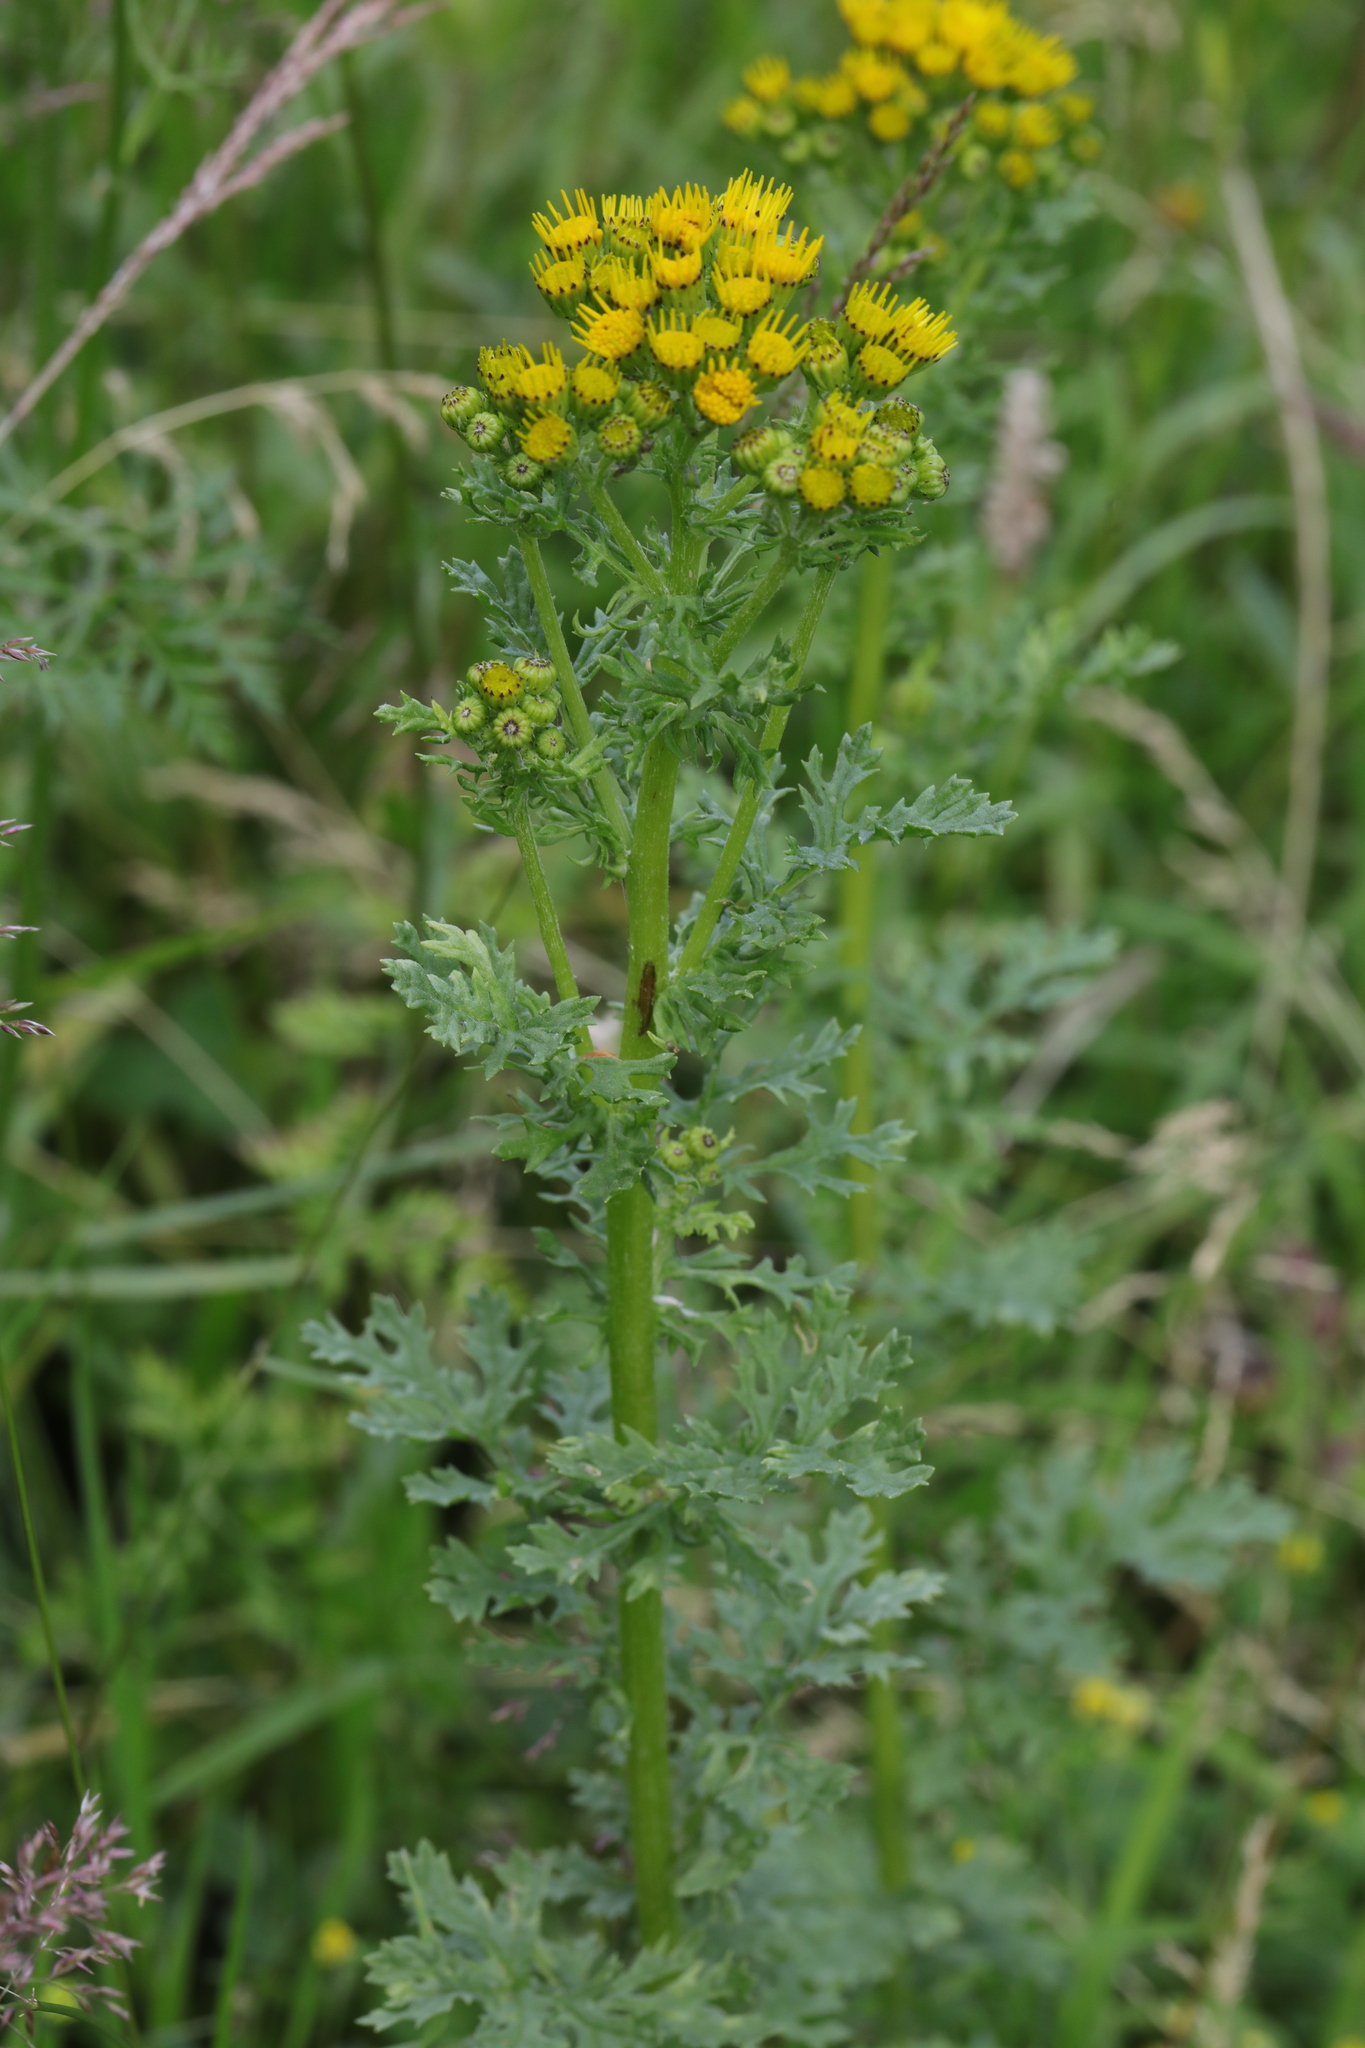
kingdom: Plantae
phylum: Tracheophyta
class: Magnoliopsida
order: Asterales
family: Asteraceae
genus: Jacobaea
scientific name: Jacobaea vulgaris
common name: Stinking willie
